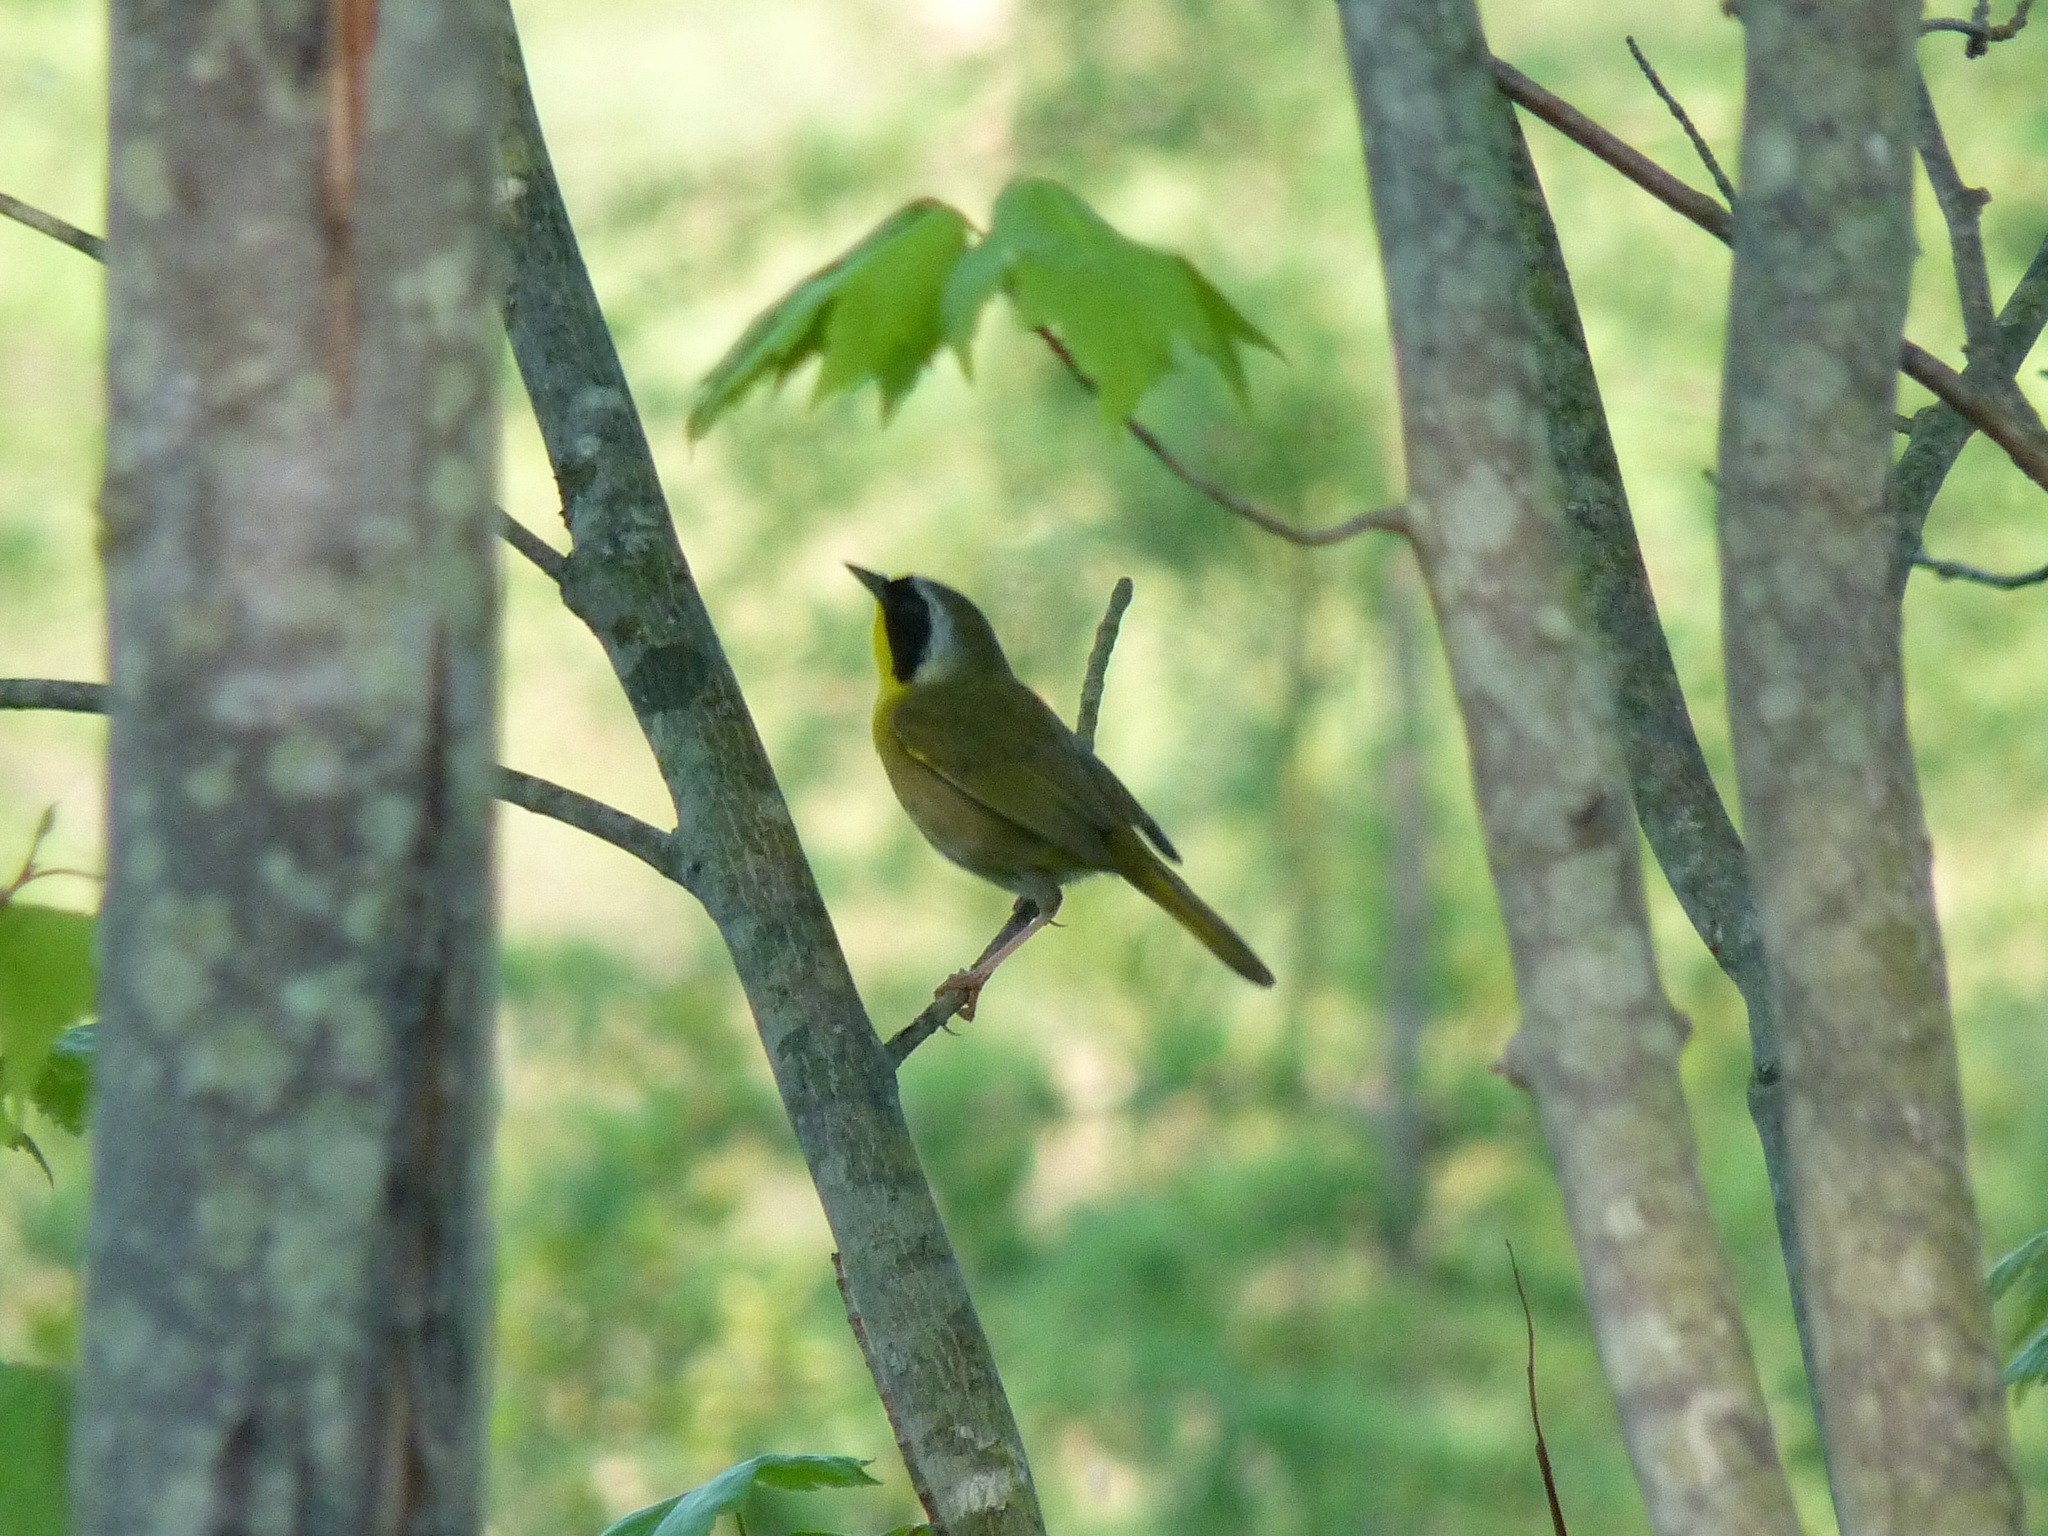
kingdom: Animalia
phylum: Chordata
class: Aves
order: Passeriformes
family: Parulidae
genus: Geothlypis
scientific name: Geothlypis trichas
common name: Common yellowthroat
